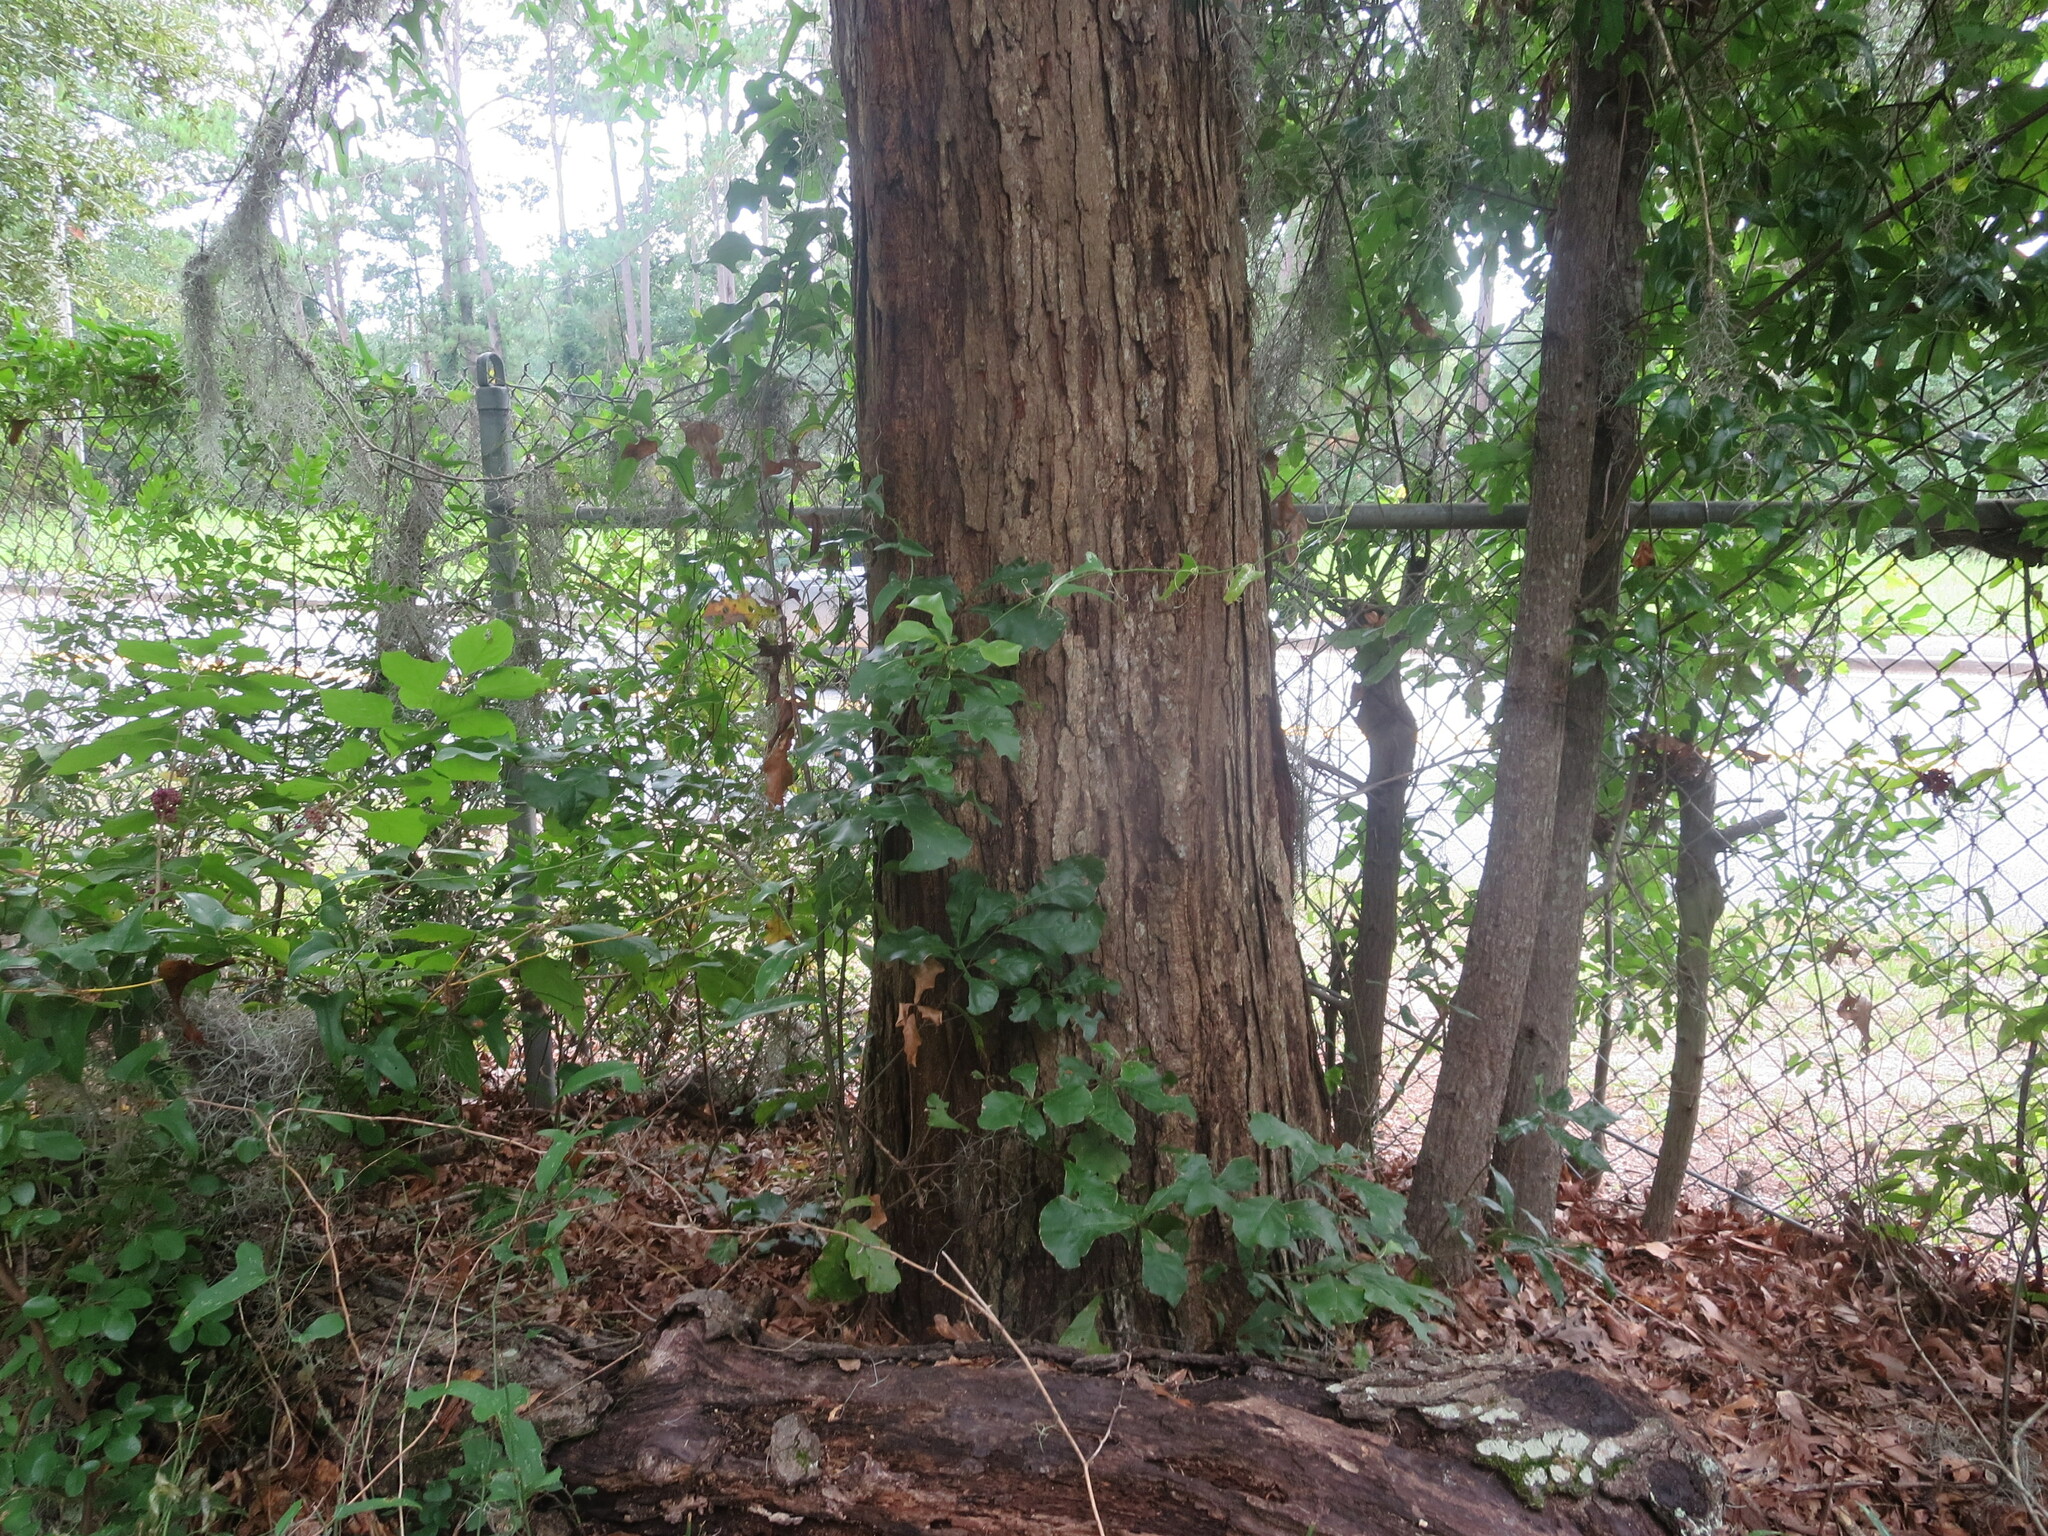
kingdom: Plantae
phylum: Tracheophyta
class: Magnoliopsida
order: Fagales
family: Fagaceae
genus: Quercus
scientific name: Quercus alba
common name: White oak
